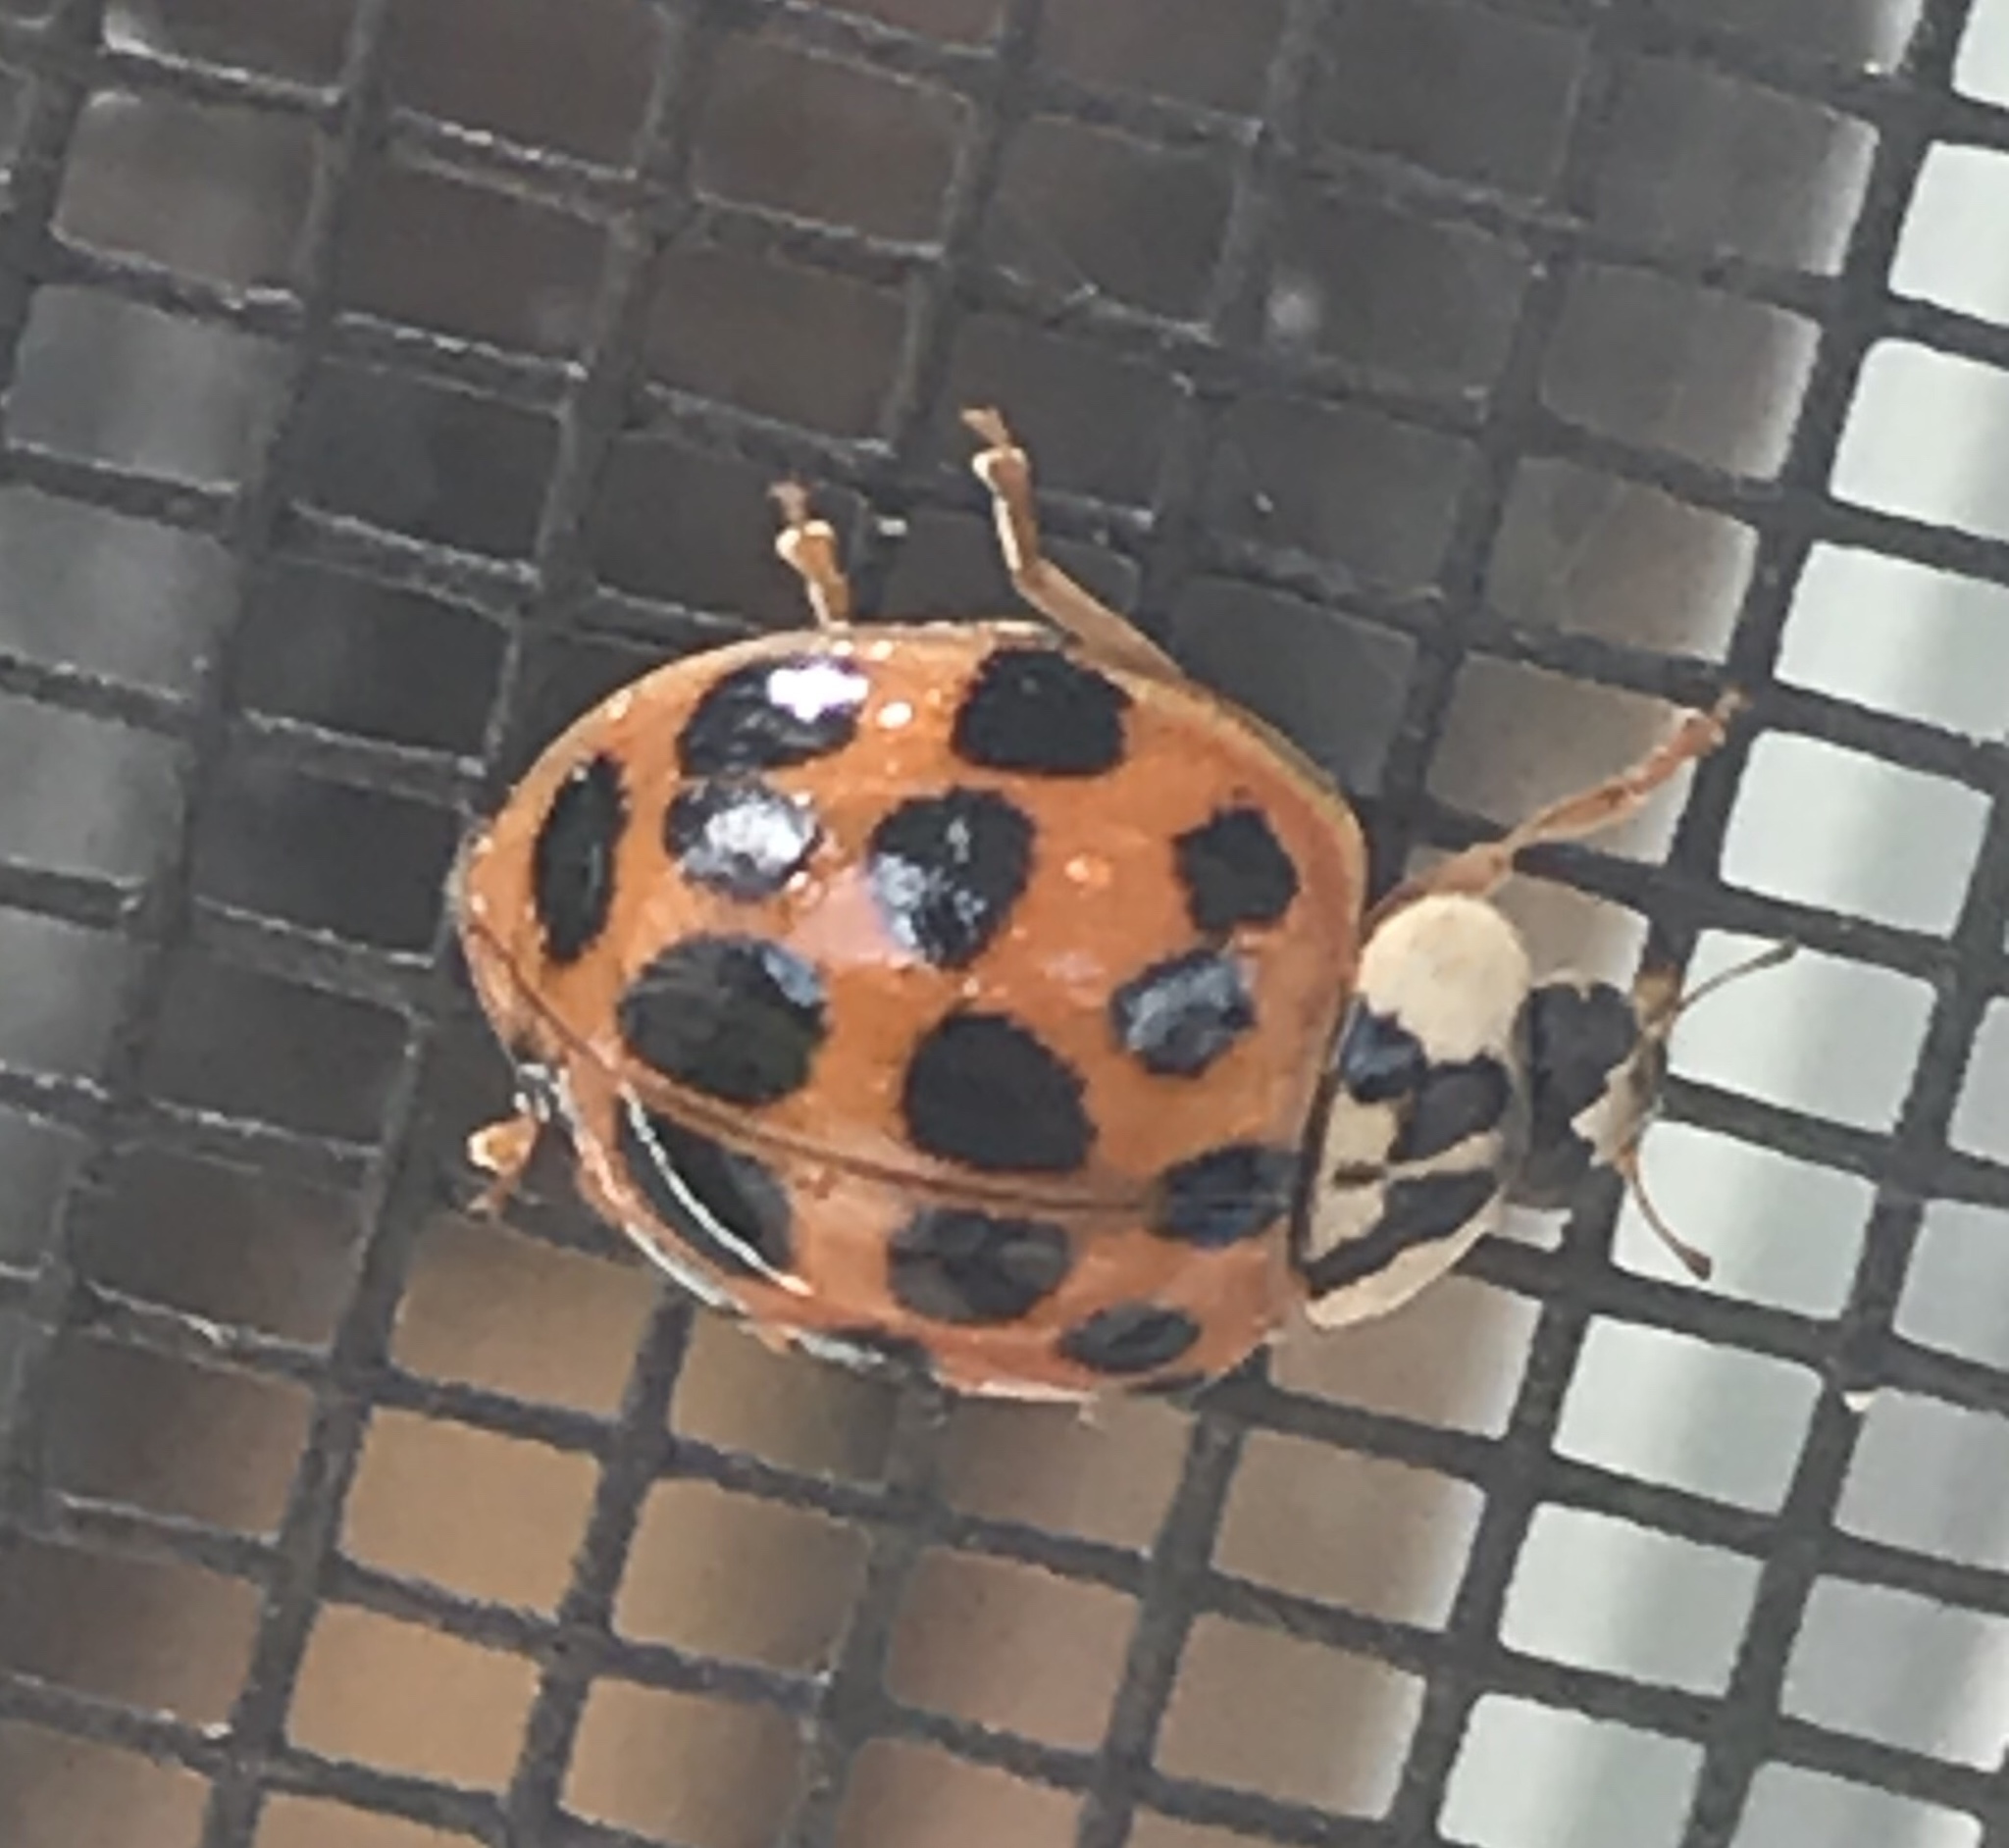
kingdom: Animalia
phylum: Arthropoda
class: Insecta
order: Coleoptera
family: Coccinellidae
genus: Harmonia
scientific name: Harmonia axyridis
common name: Harlequin ladybird
